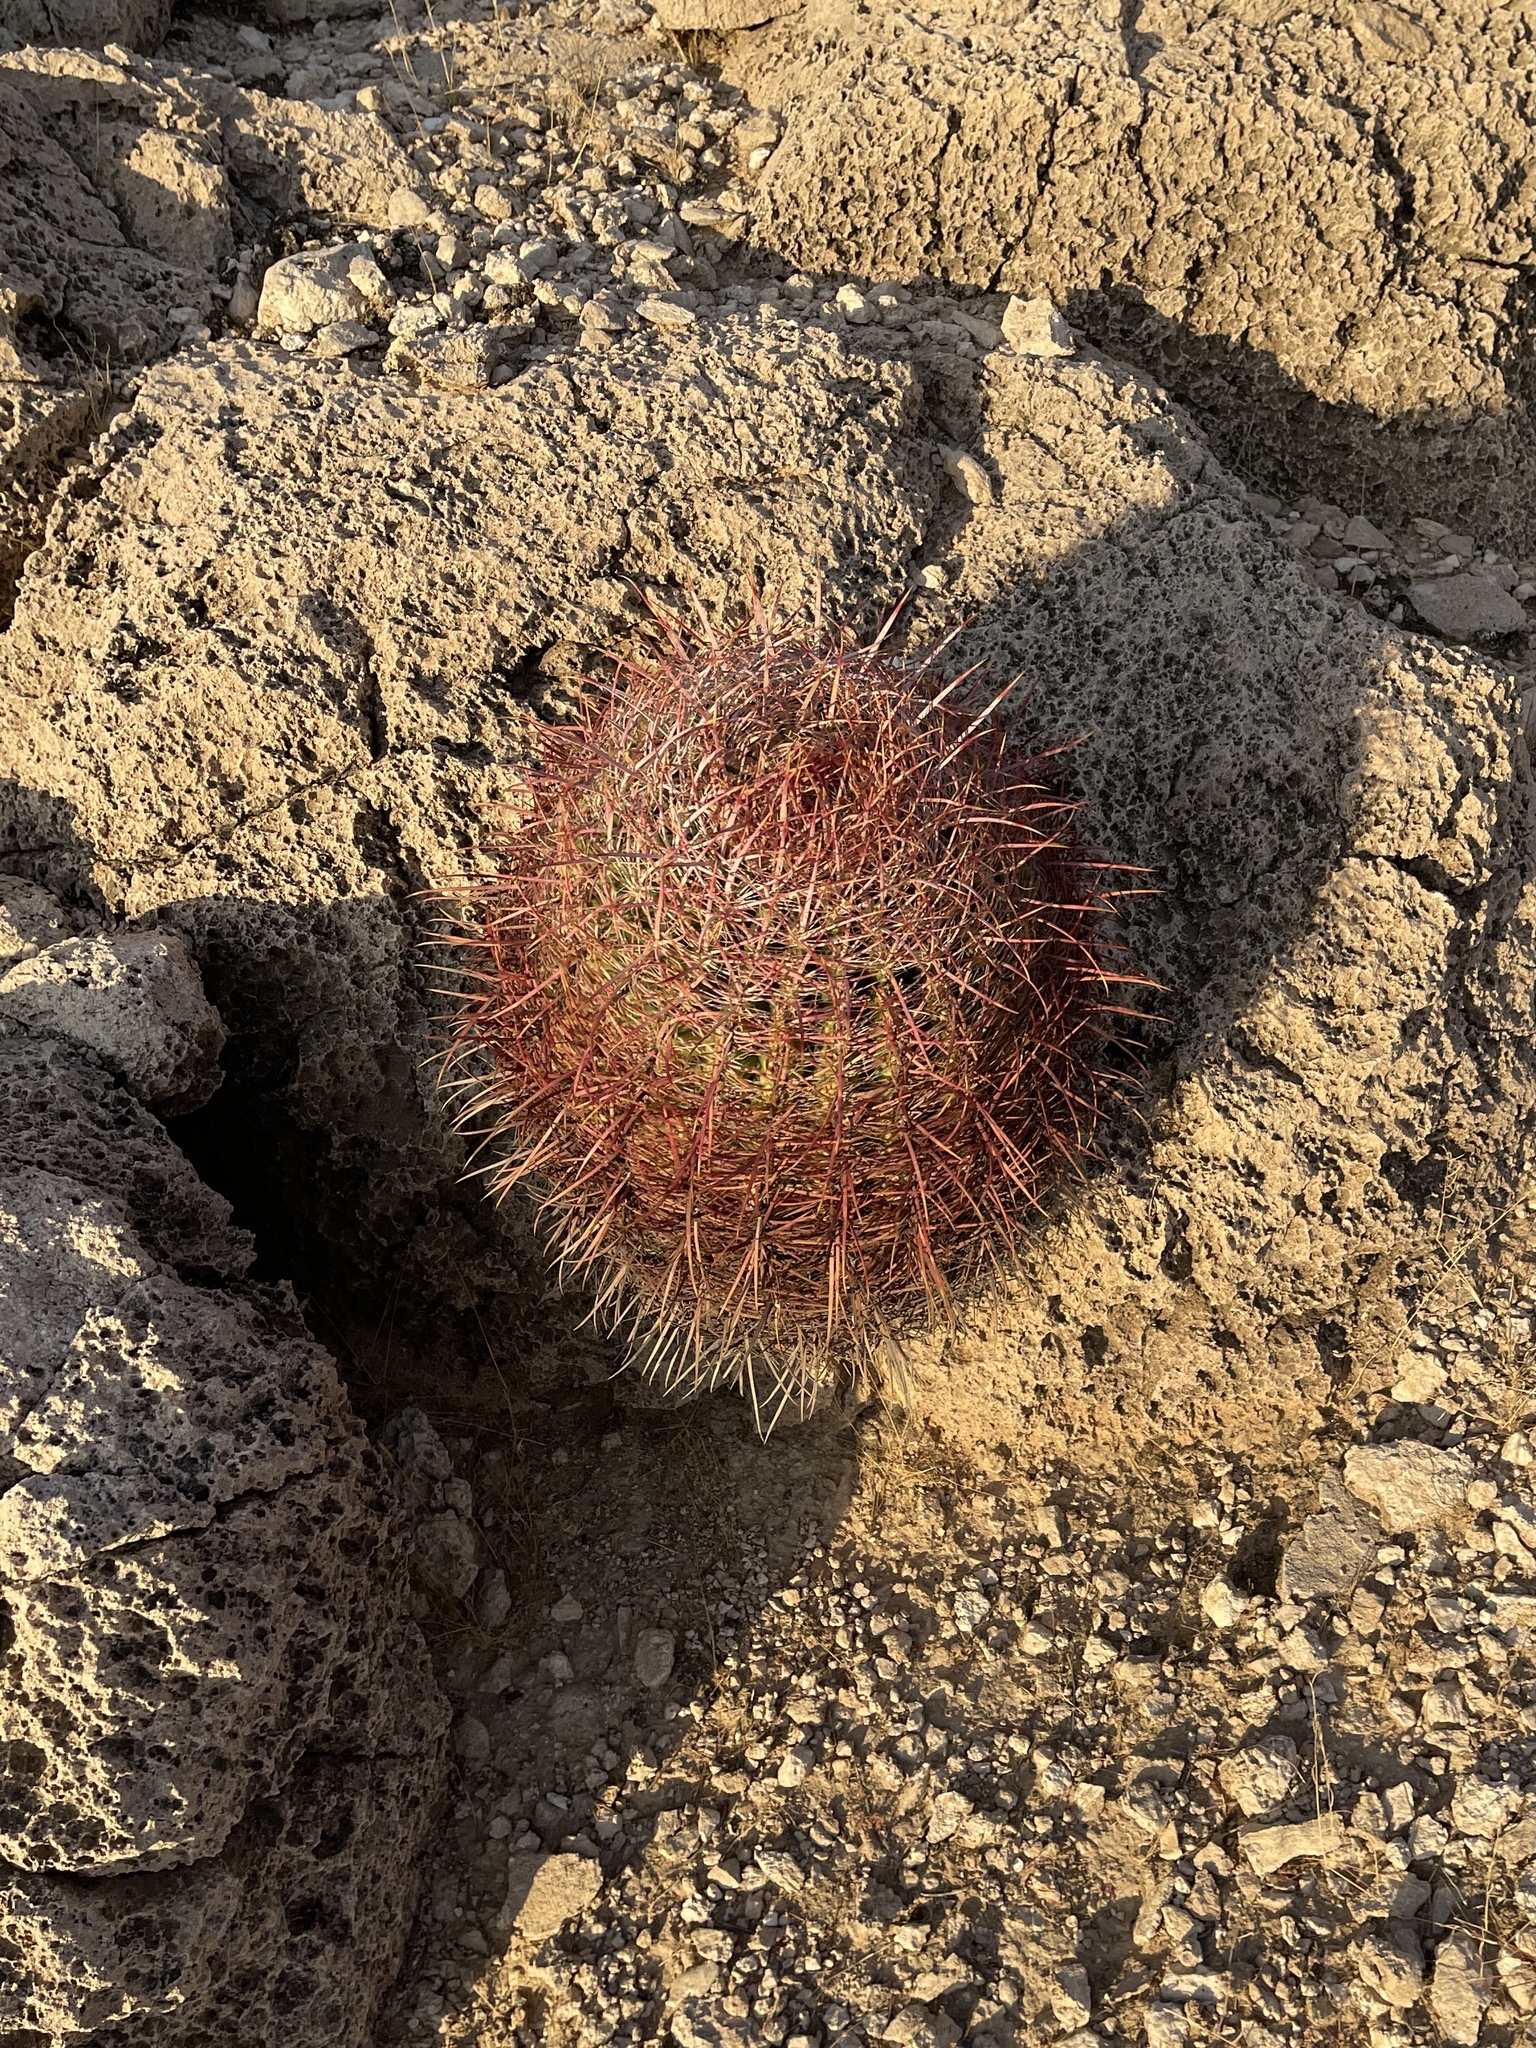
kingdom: Plantae
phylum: Tracheophyta
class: Magnoliopsida
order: Caryophyllales
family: Cactaceae
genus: Ferocactus
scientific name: Ferocactus cylindraceus
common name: California barrel cactus
